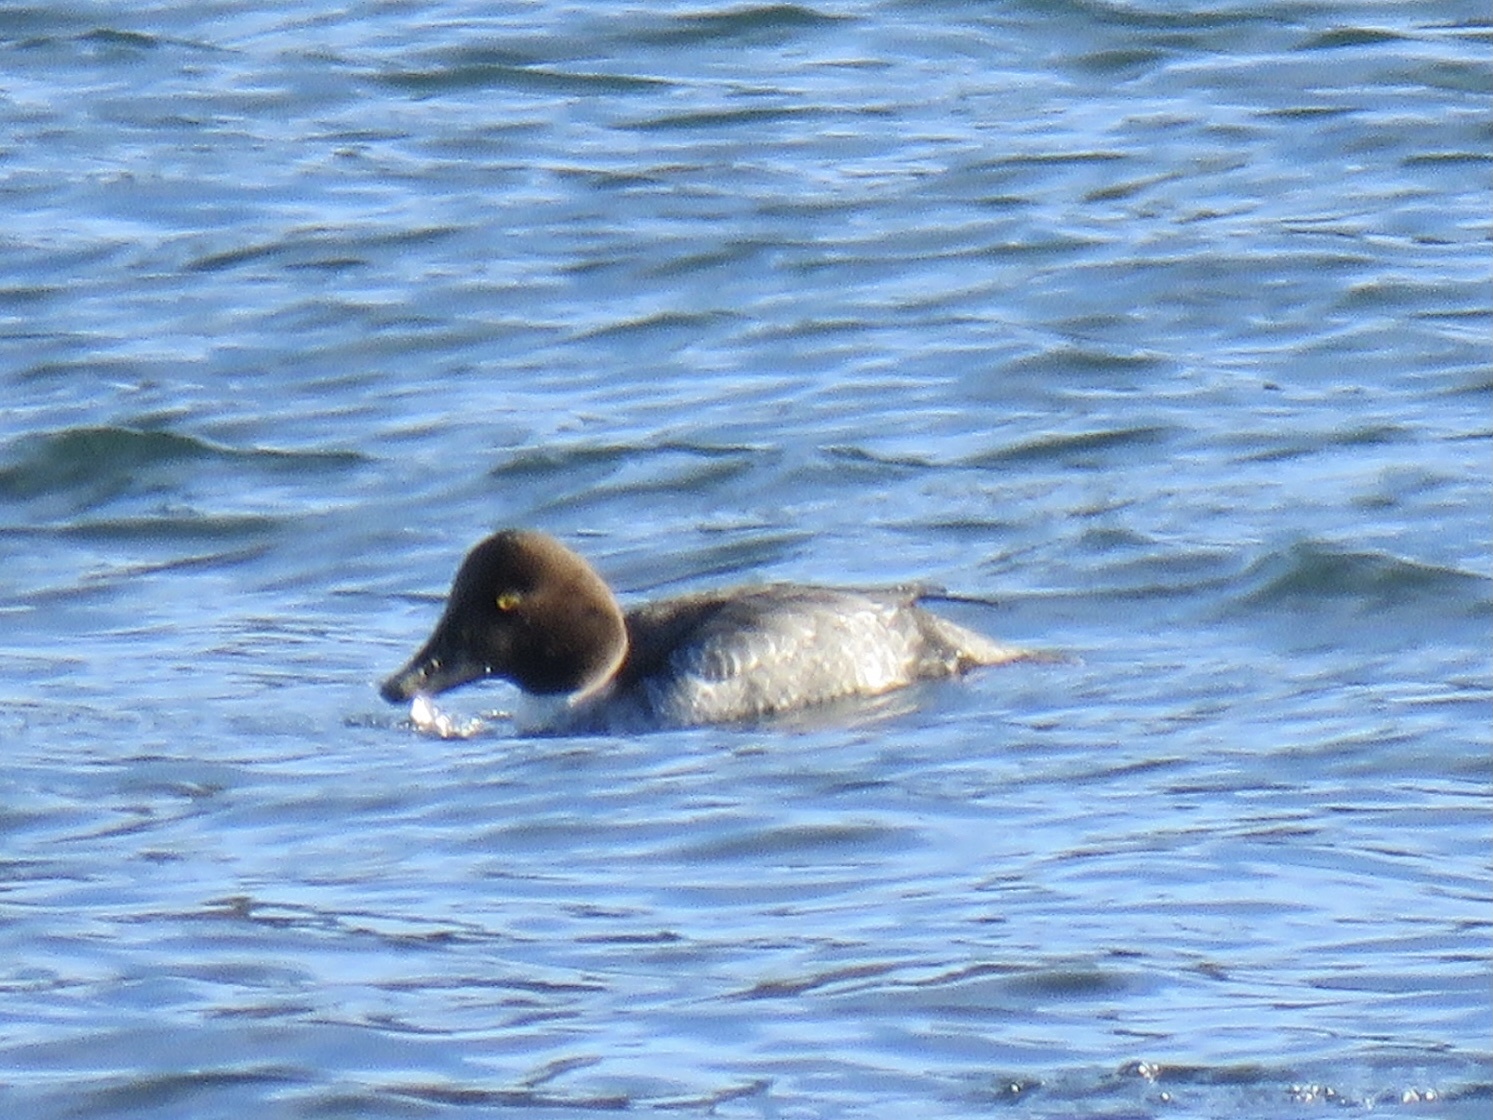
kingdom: Animalia
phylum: Chordata
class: Aves
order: Anseriformes
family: Anatidae
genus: Bucephala
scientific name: Bucephala clangula
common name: Common goldeneye
